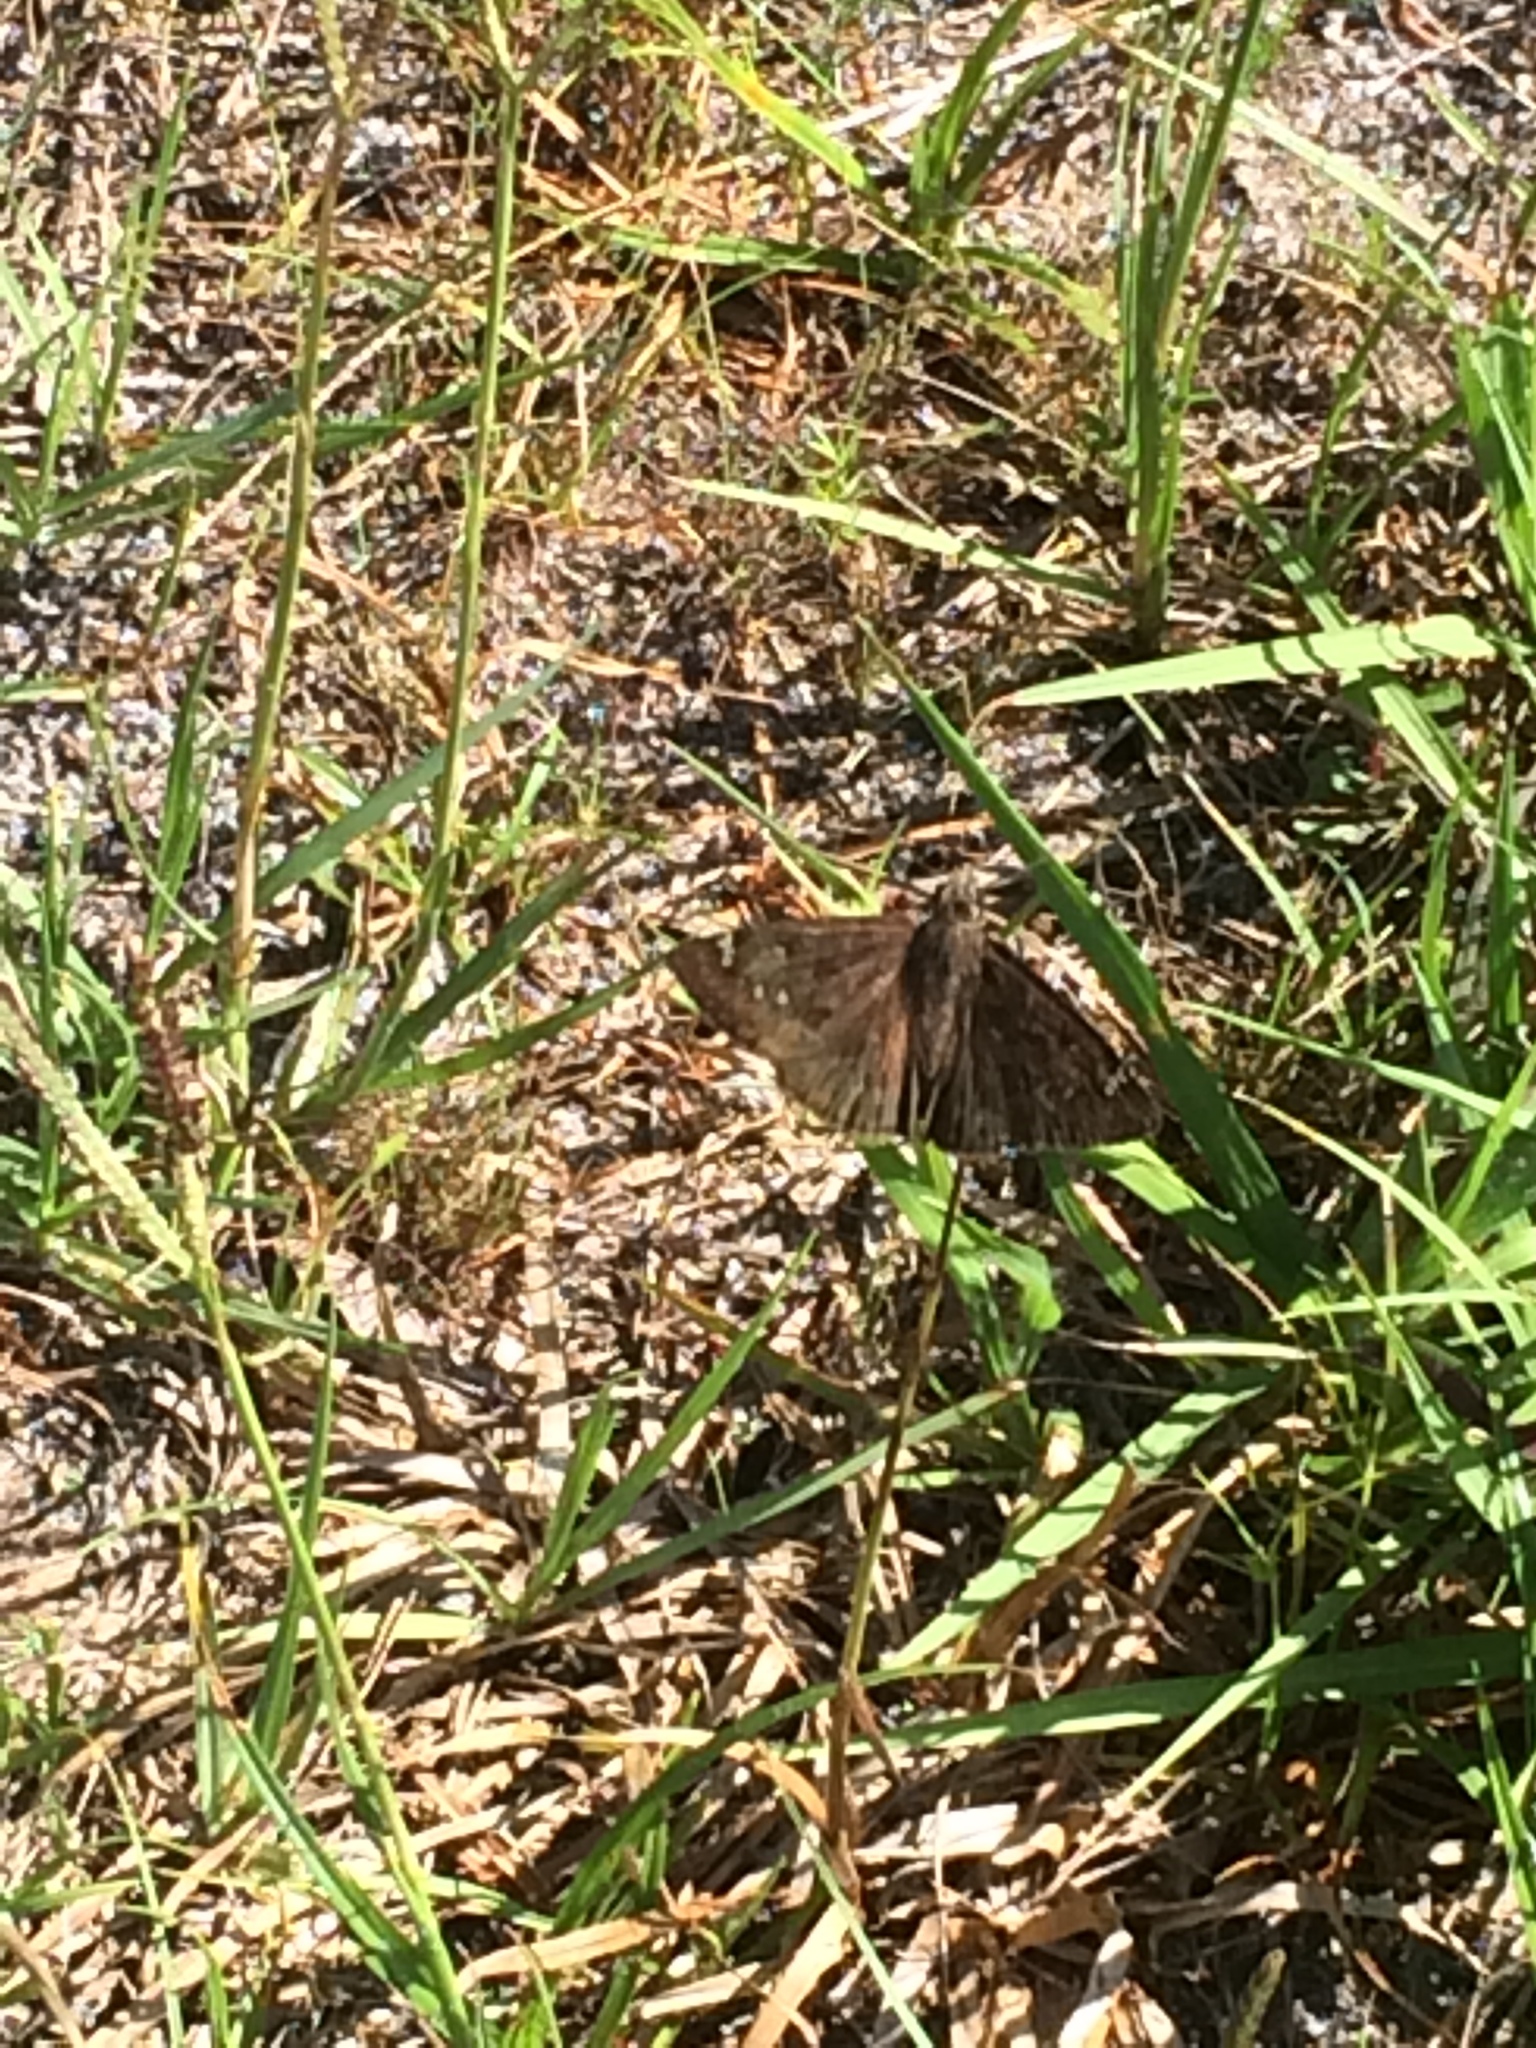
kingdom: Animalia
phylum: Arthropoda
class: Insecta
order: Lepidoptera
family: Hesperiidae
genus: Erynnis
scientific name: Erynnis horatius
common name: Horace's duskywing
